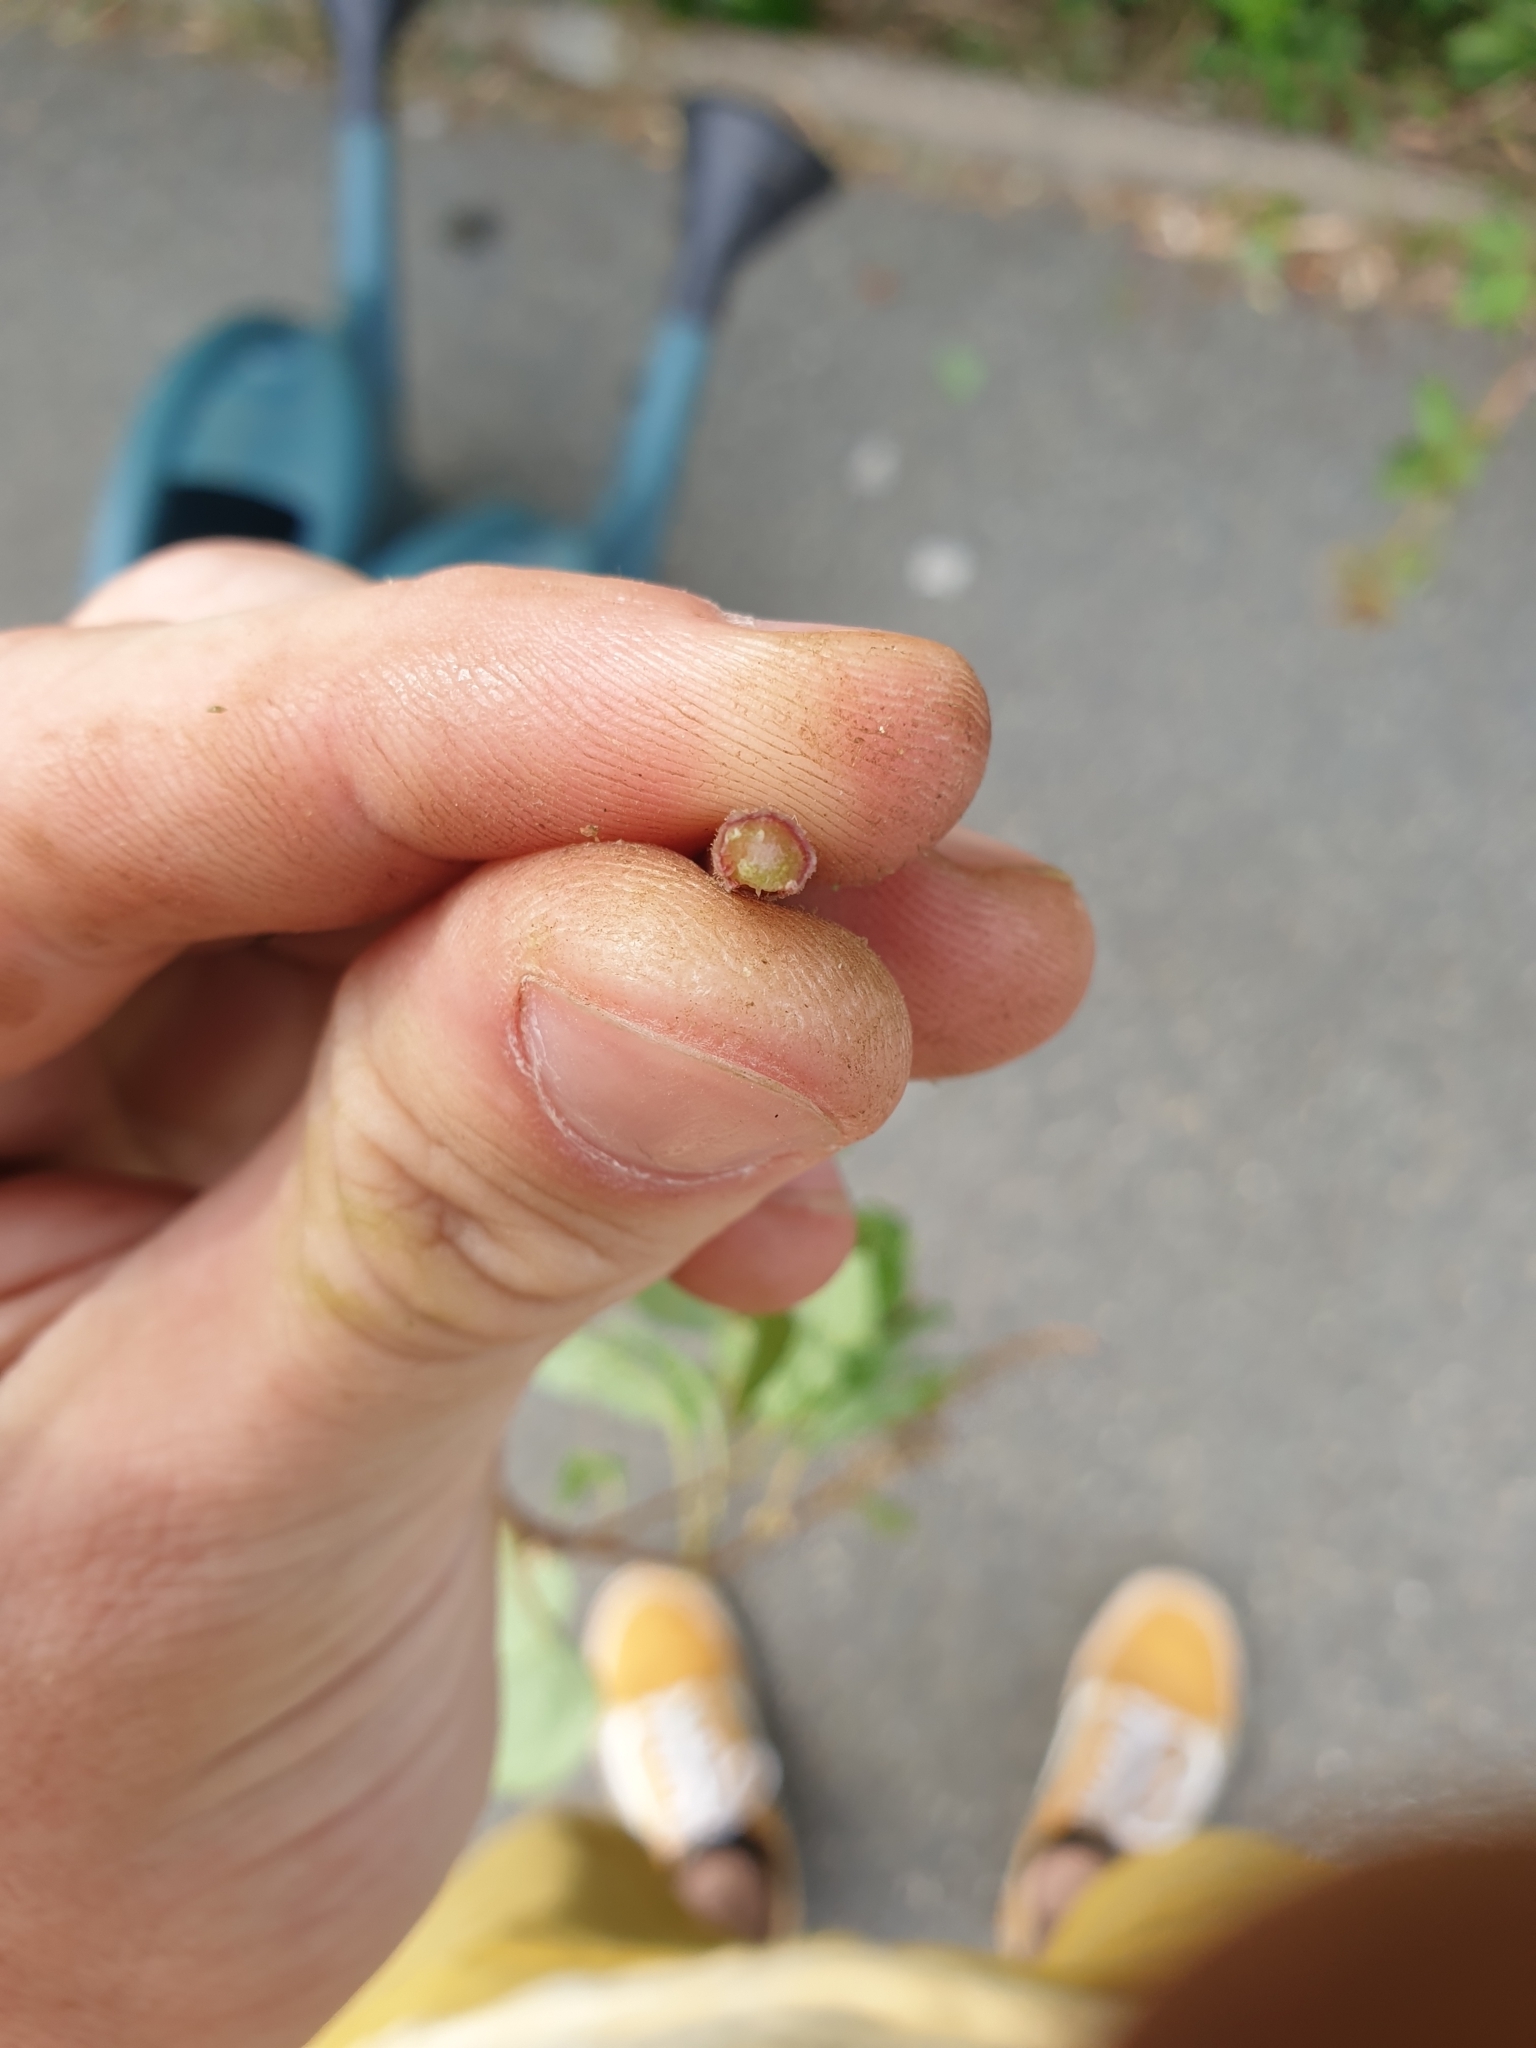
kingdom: Plantae
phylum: Tracheophyta
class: Magnoliopsida
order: Caryophyllales
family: Amaranthaceae
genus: Amaranthus
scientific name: Amaranthus deflexus
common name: Perennial pigweed
